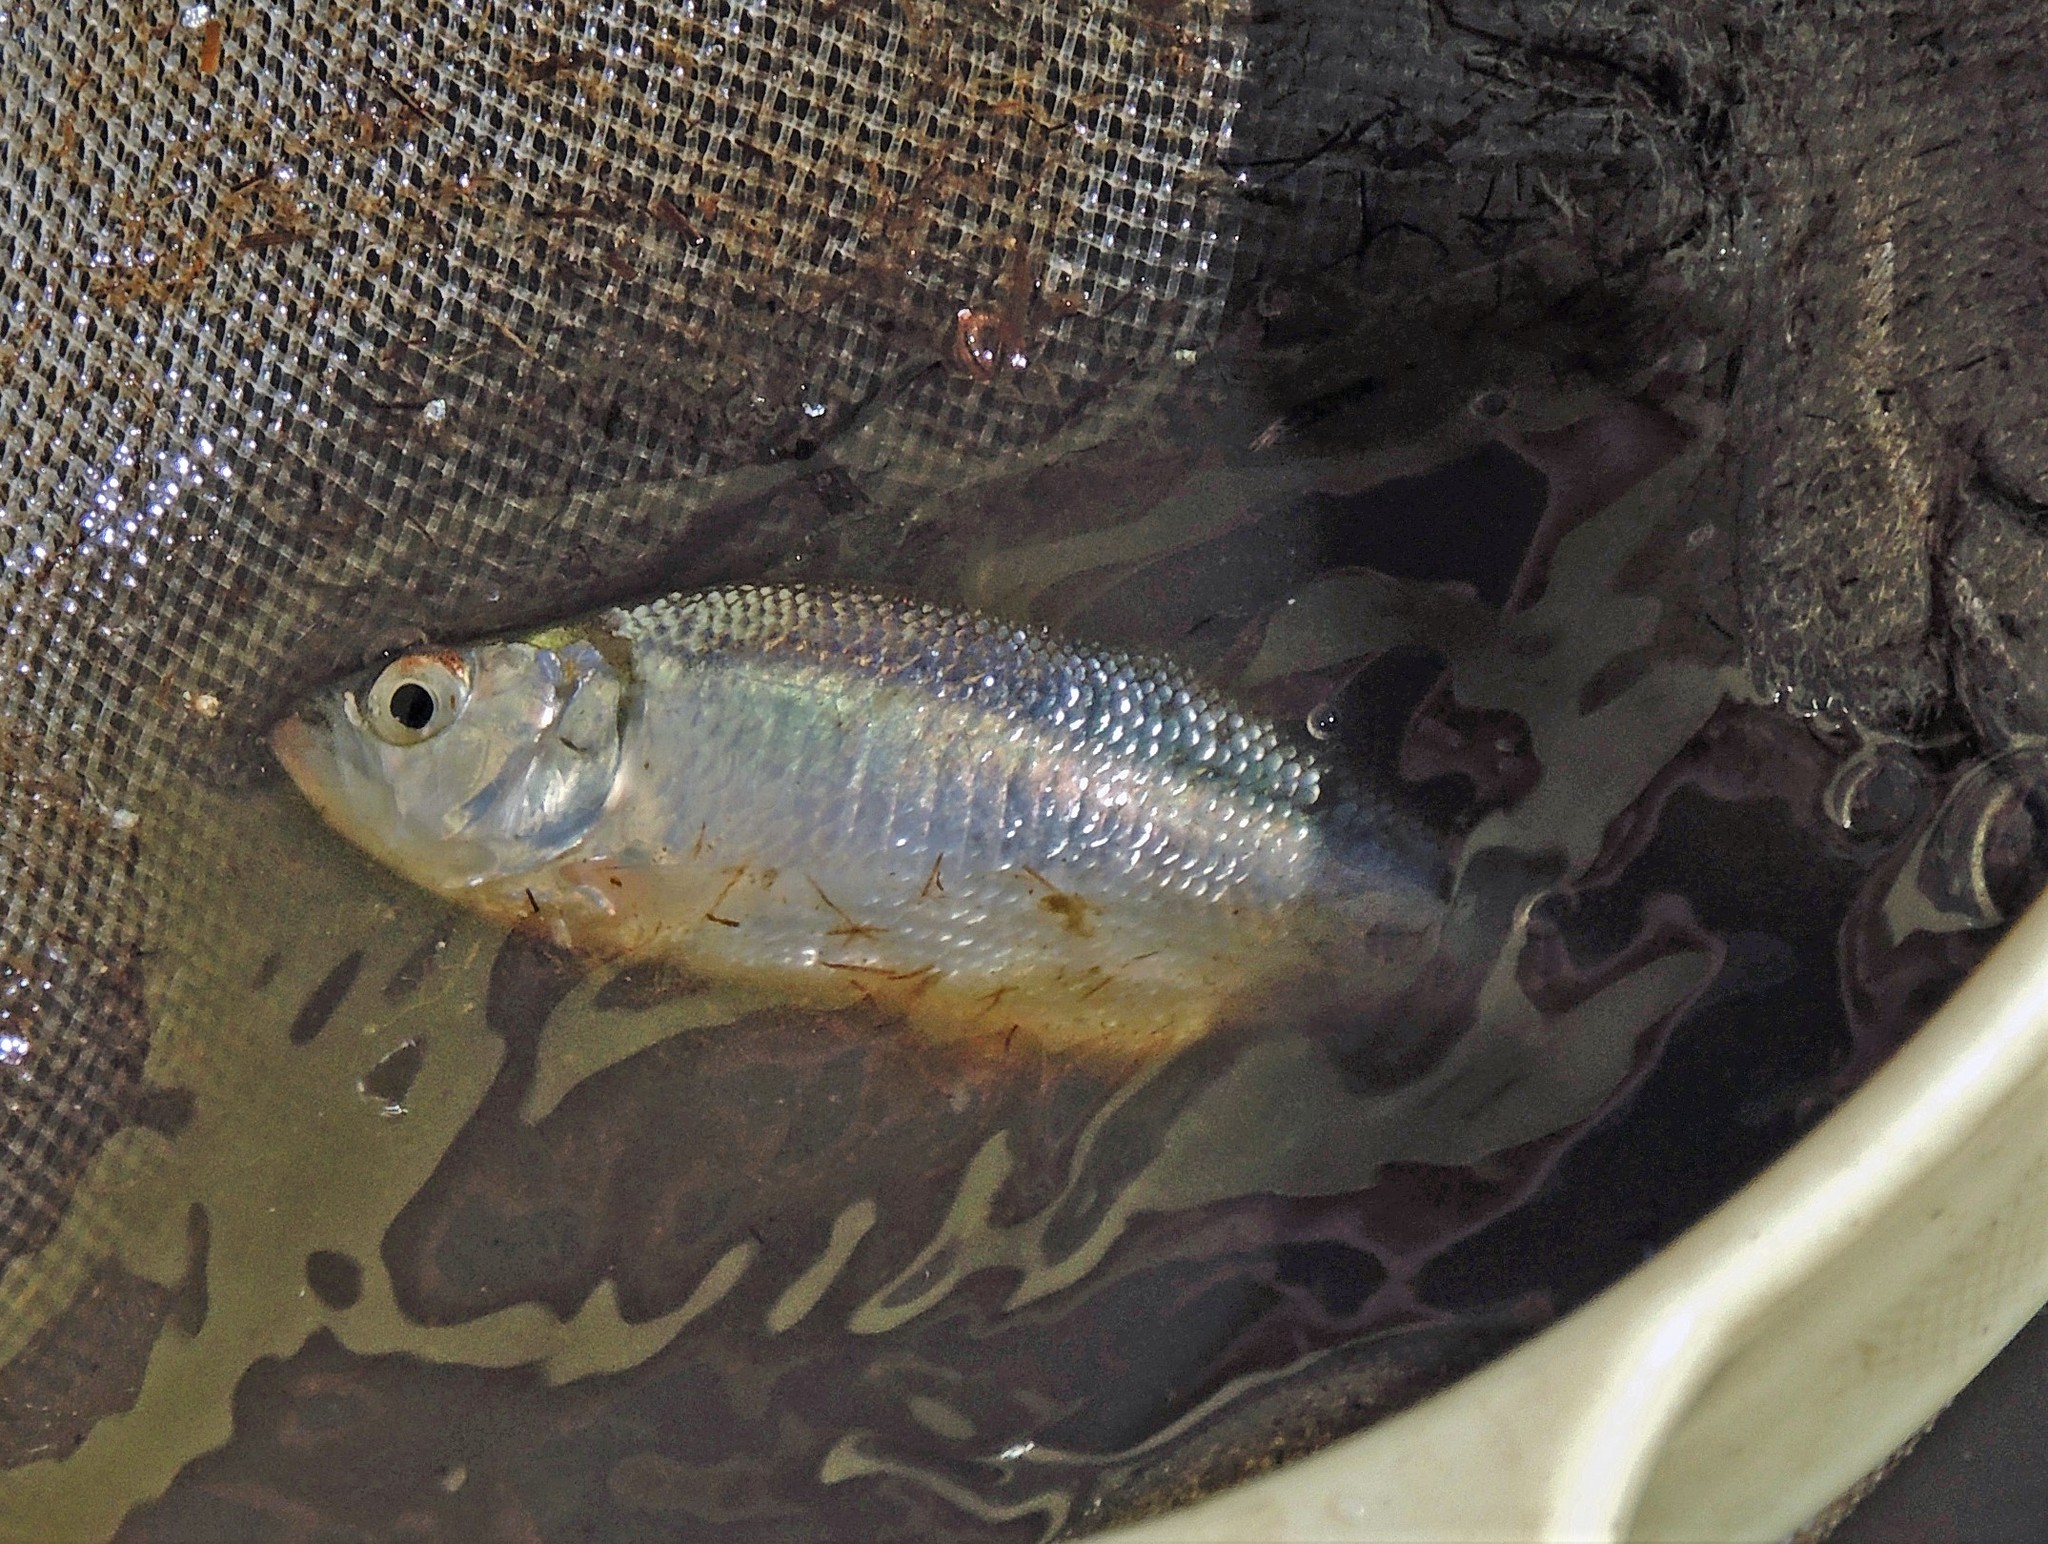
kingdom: Animalia
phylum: Chordata
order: Characiformes
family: Characidae
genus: Oligosarcus
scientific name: Oligosarcus jenynsii
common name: Pike characin
